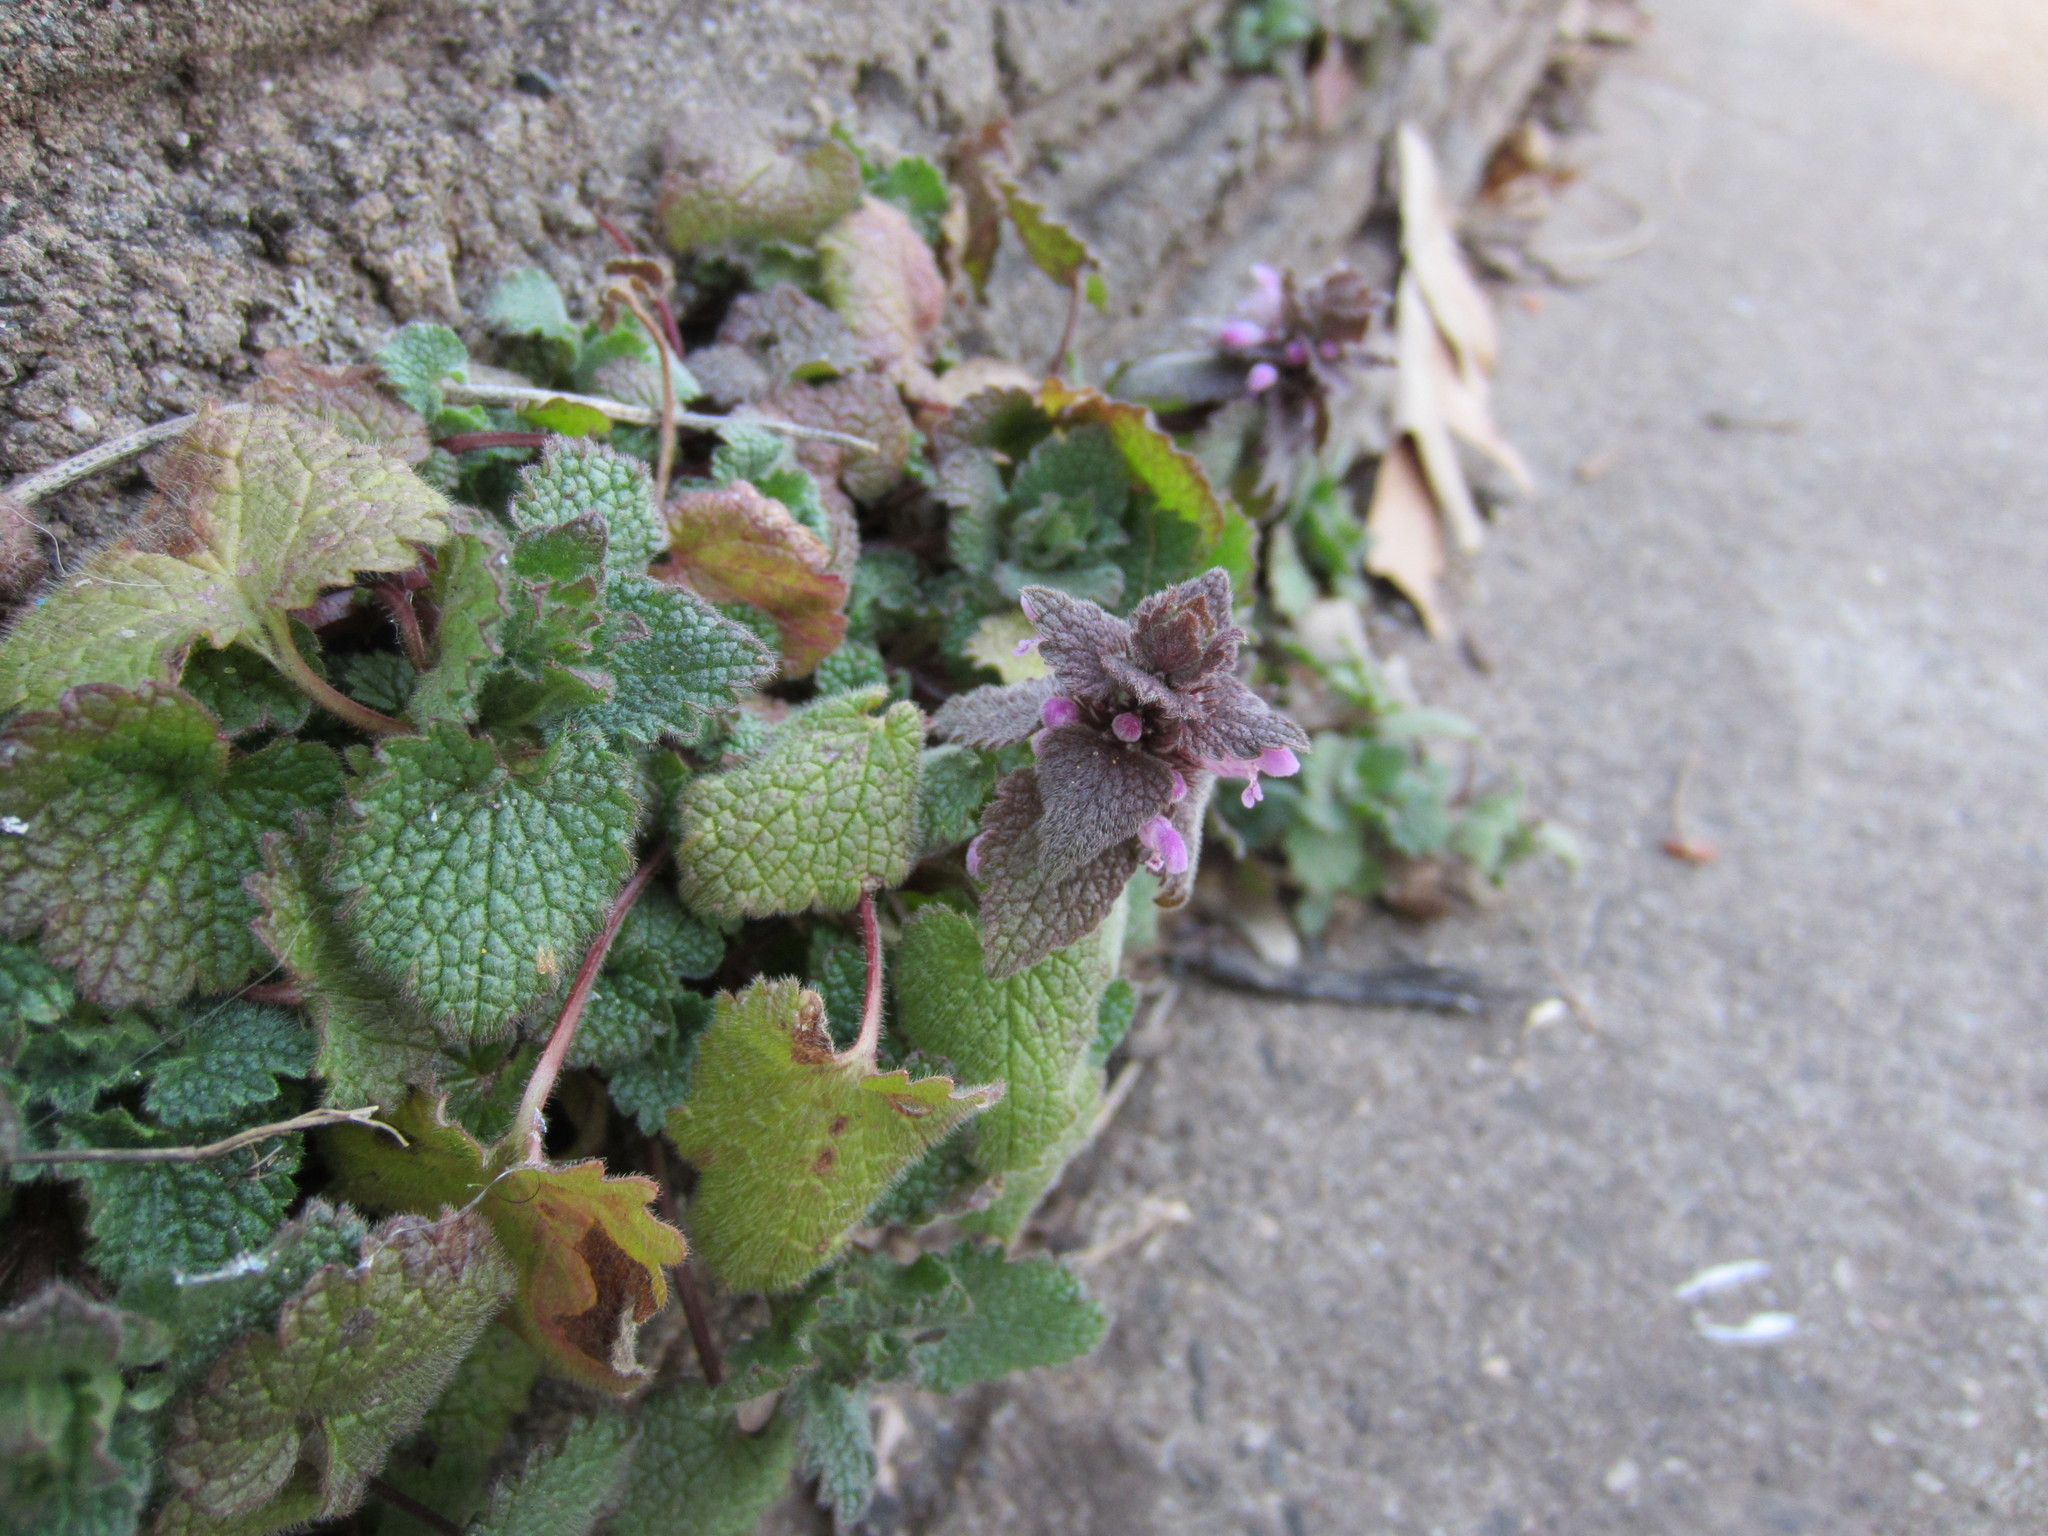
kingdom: Plantae
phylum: Tracheophyta
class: Magnoliopsida
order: Lamiales
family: Lamiaceae
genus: Lamium
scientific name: Lamium purpureum
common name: Red dead-nettle
